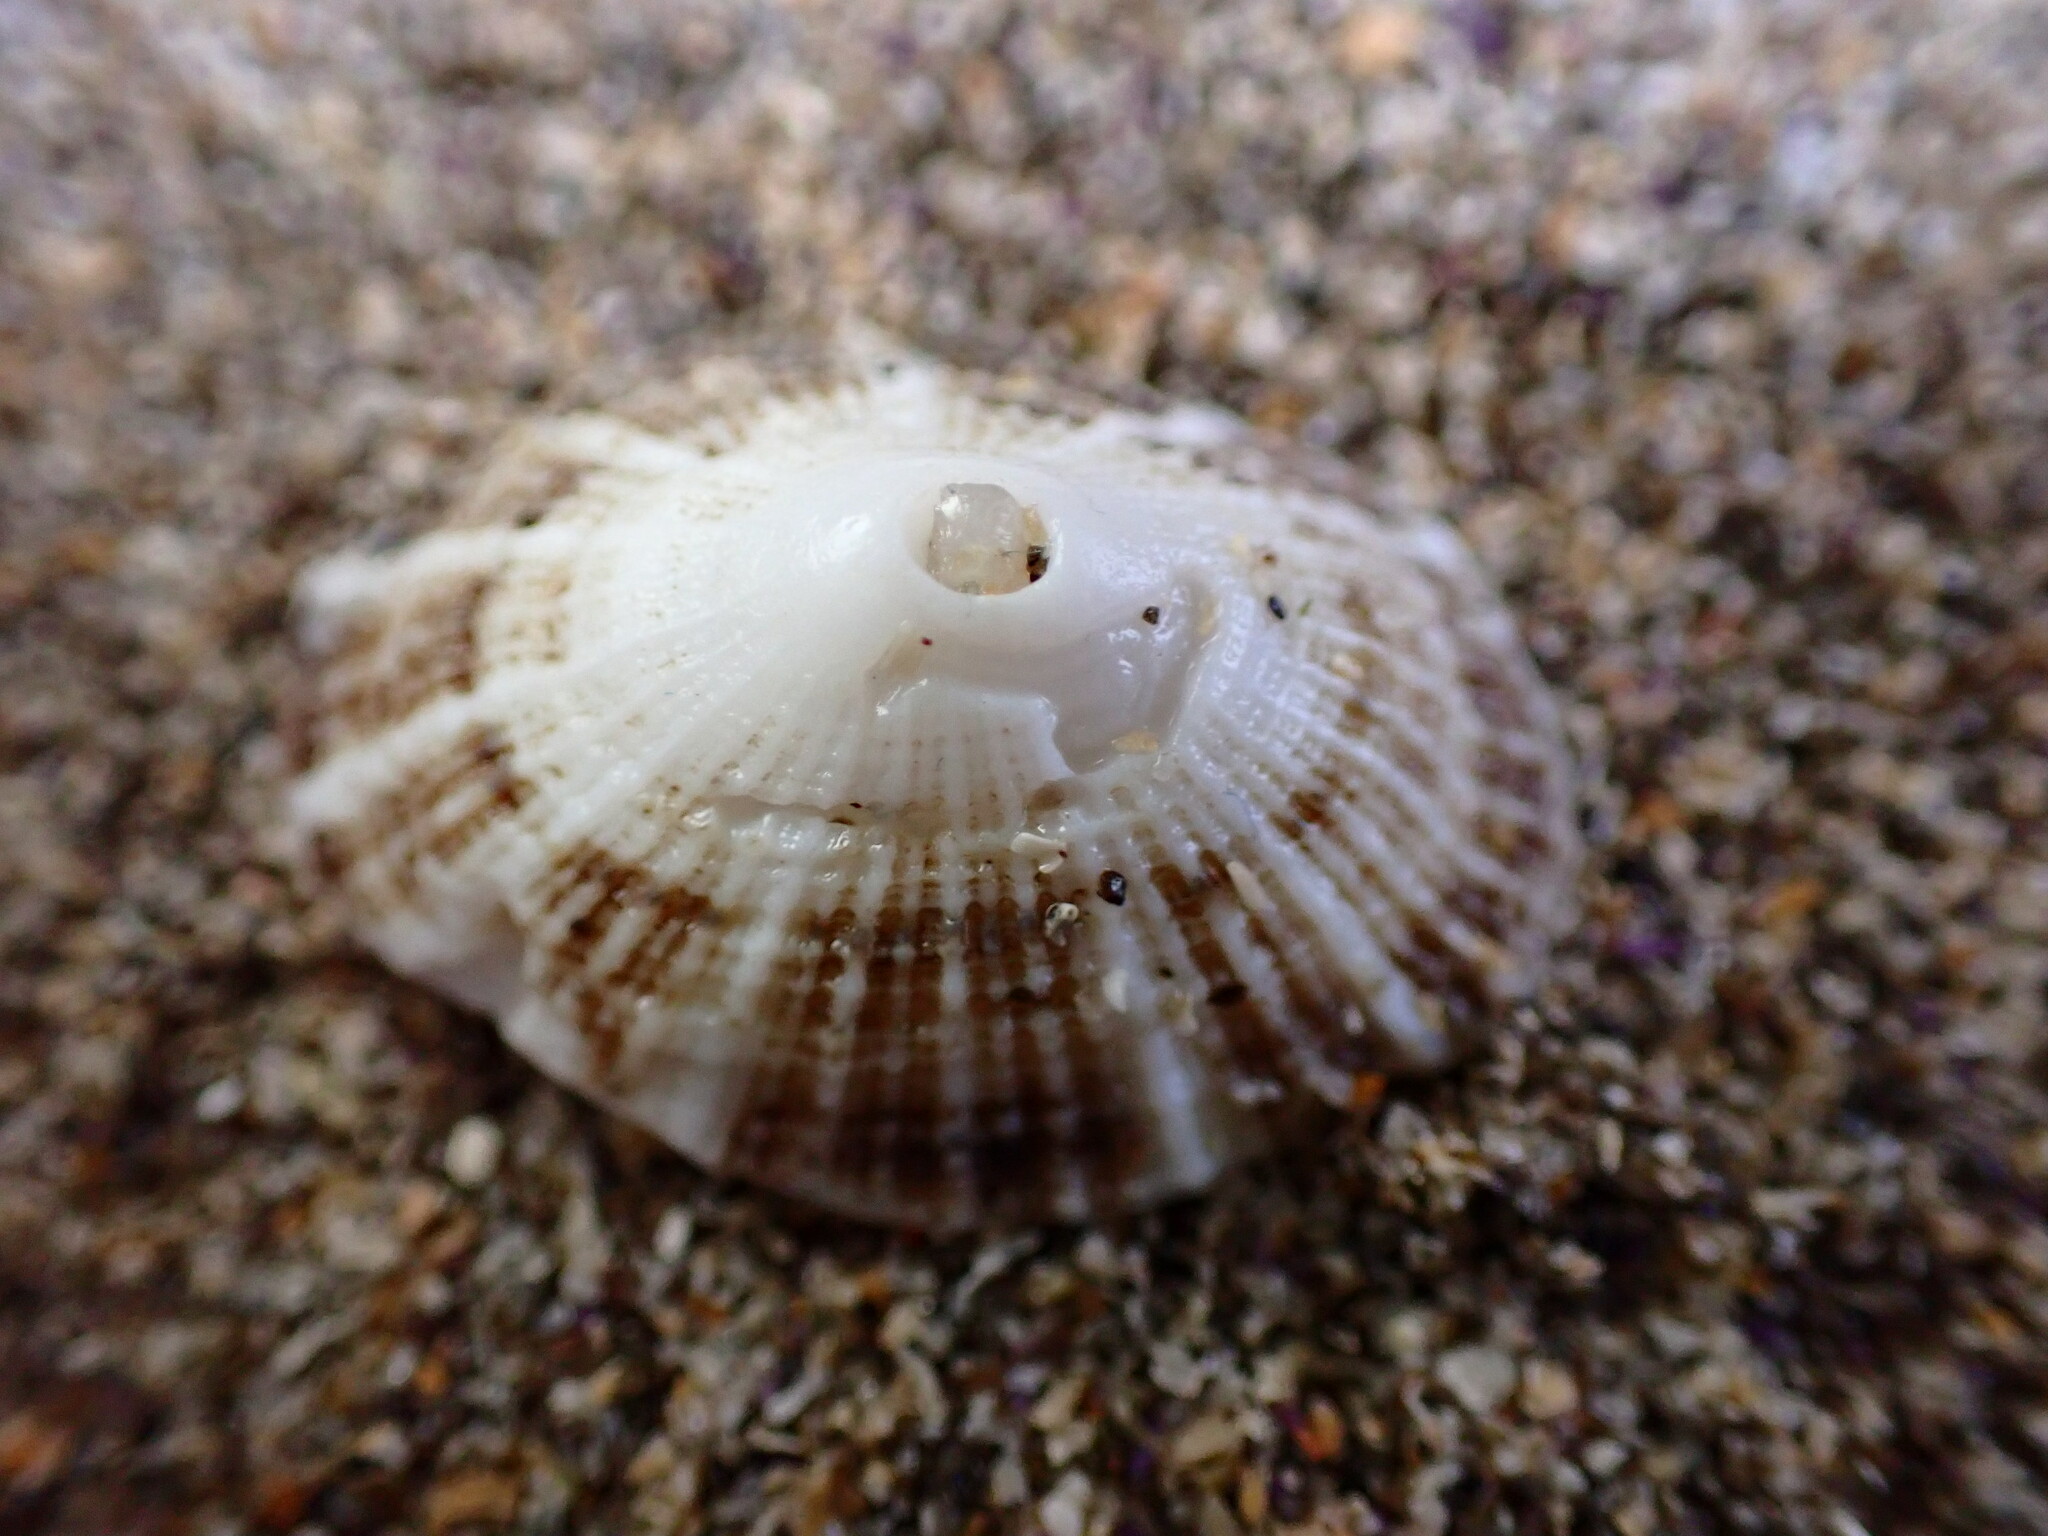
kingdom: Animalia
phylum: Mollusca
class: Gastropoda
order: Lepetellida
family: Fissurellidae
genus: Diodora
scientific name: Diodora aspera
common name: Rough keyhole limpet
